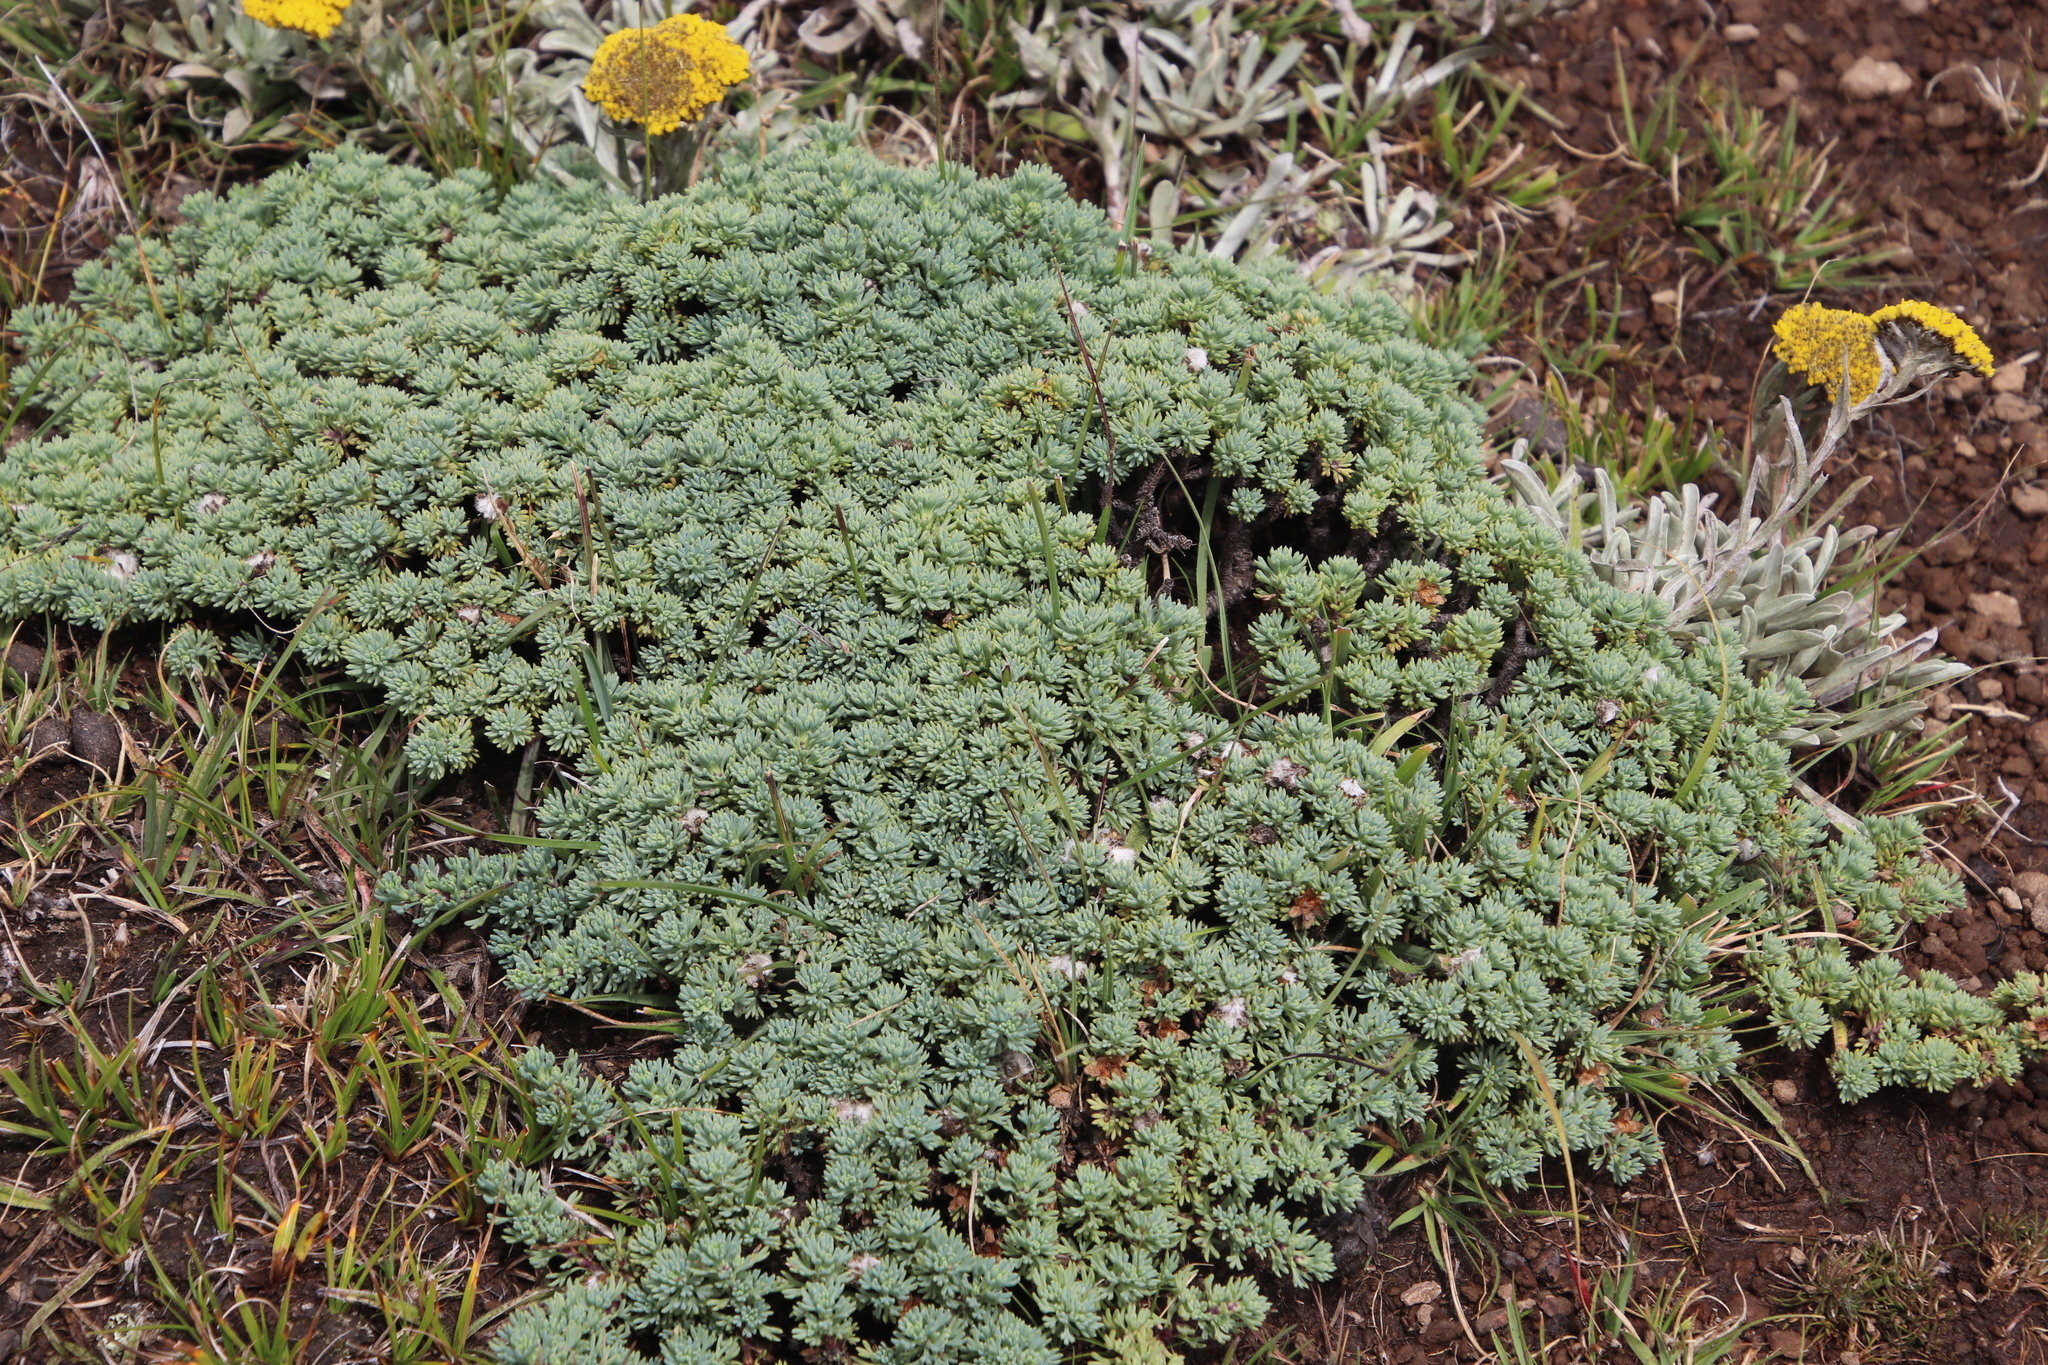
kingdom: Plantae
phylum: Tracheophyta
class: Magnoliopsida
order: Asterales
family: Asteraceae
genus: Euryops
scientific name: Euryops decumbens
